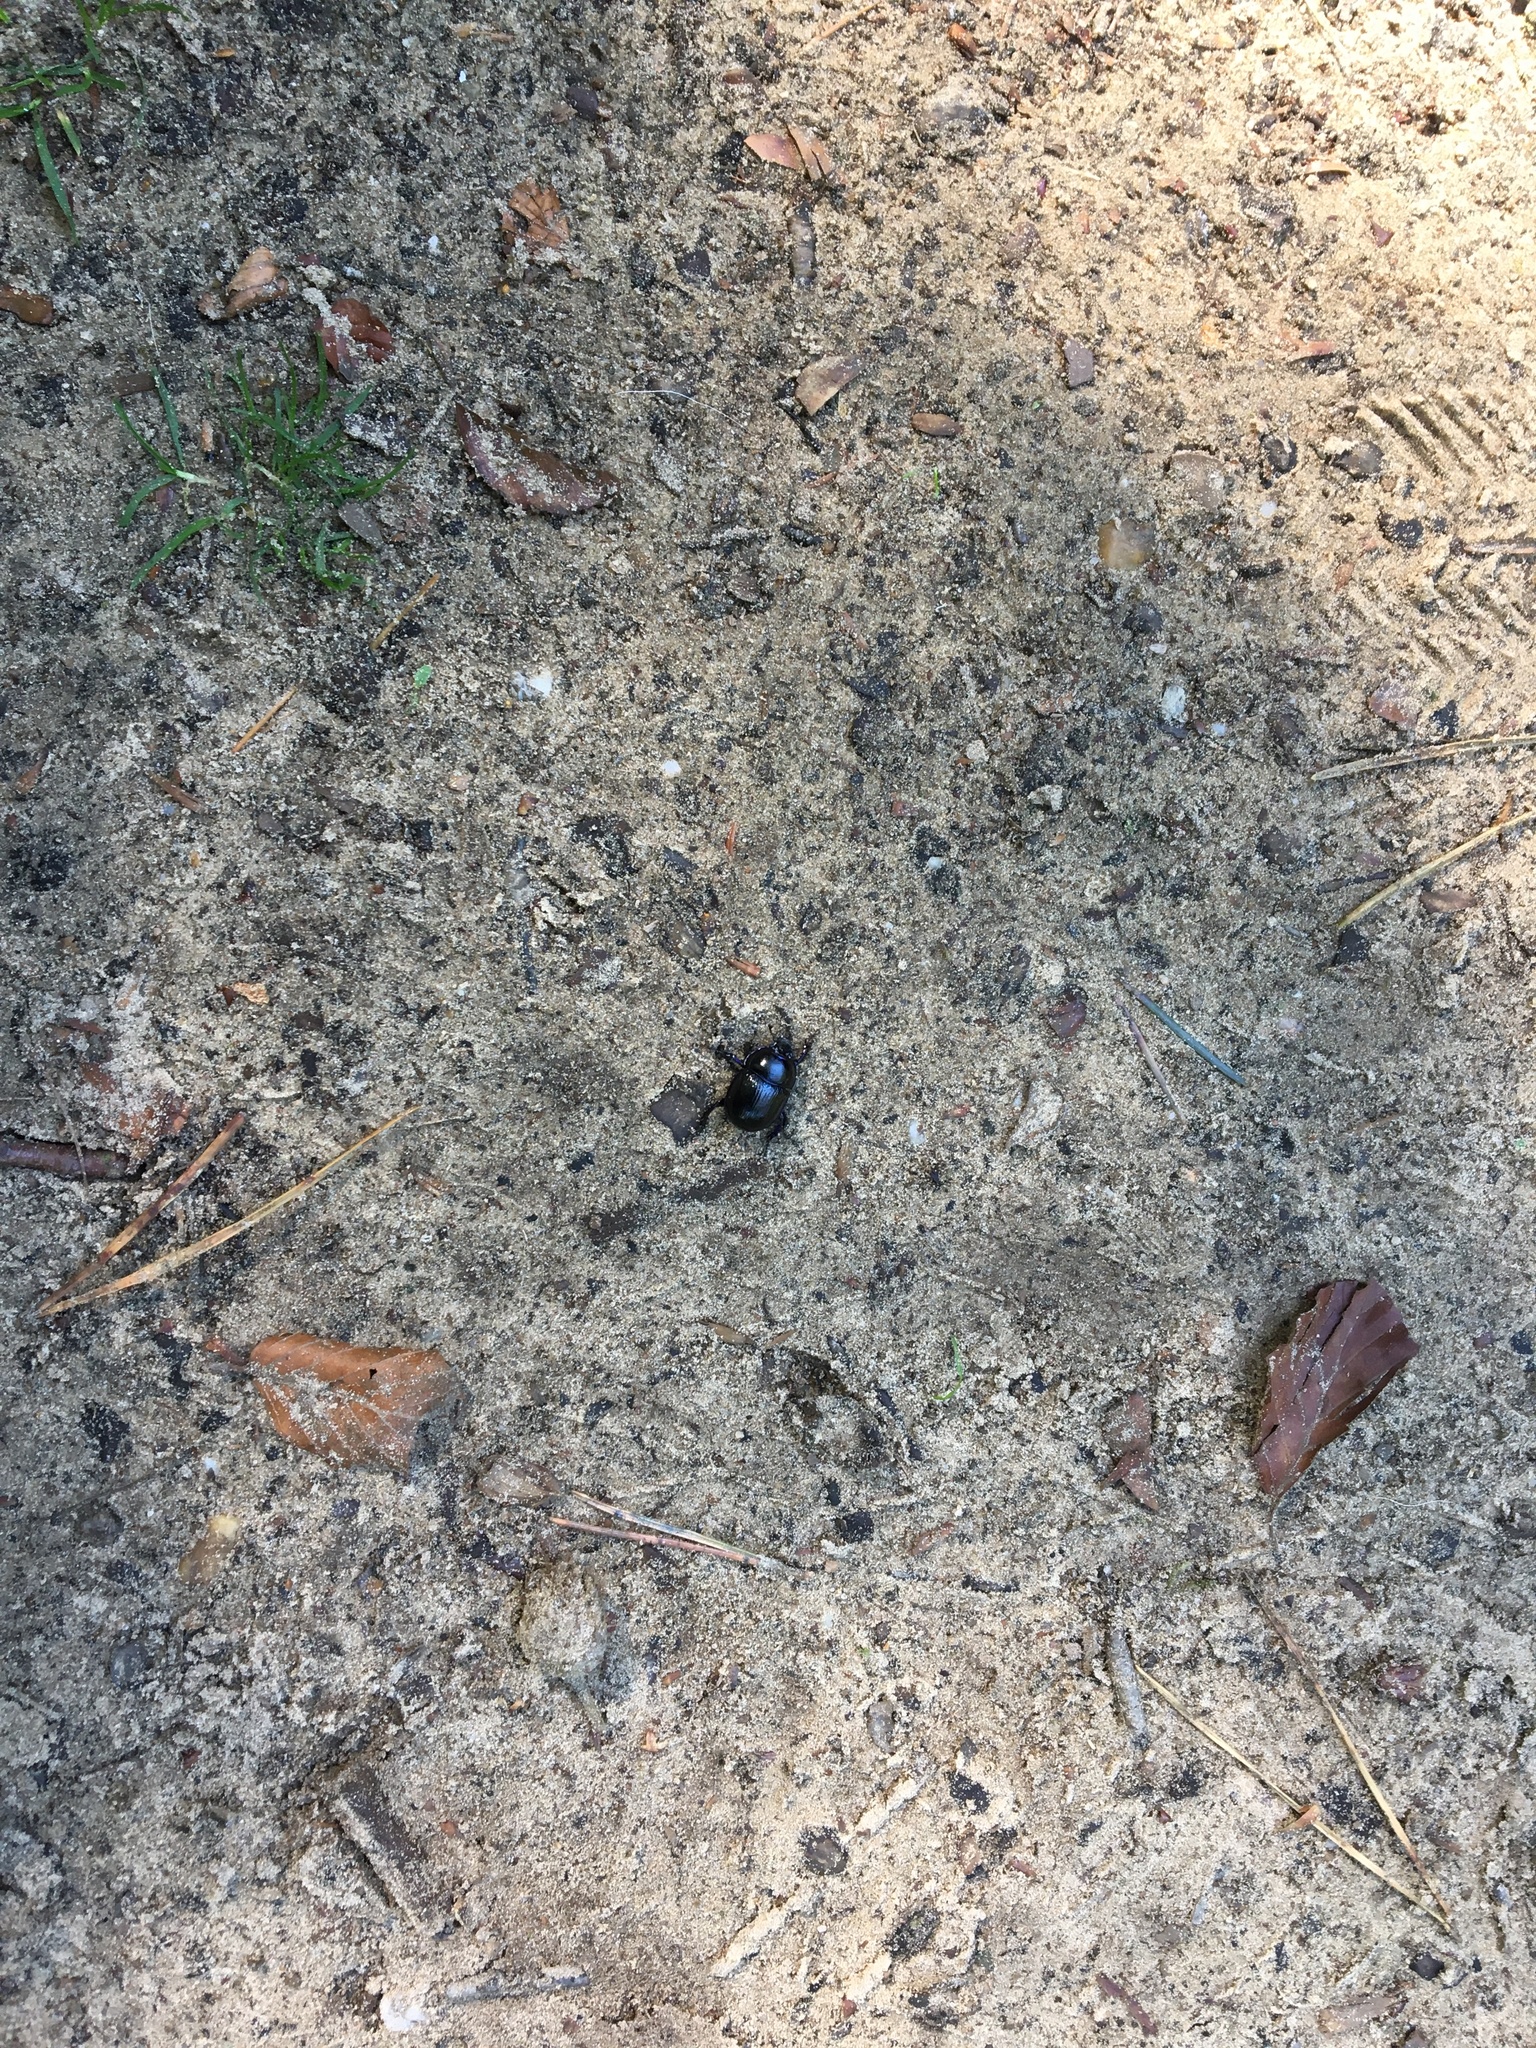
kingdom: Animalia
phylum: Arthropoda
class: Insecta
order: Coleoptera
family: Geotrupidae
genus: Anoplotrupes
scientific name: Anoplotrupes stercorosus
